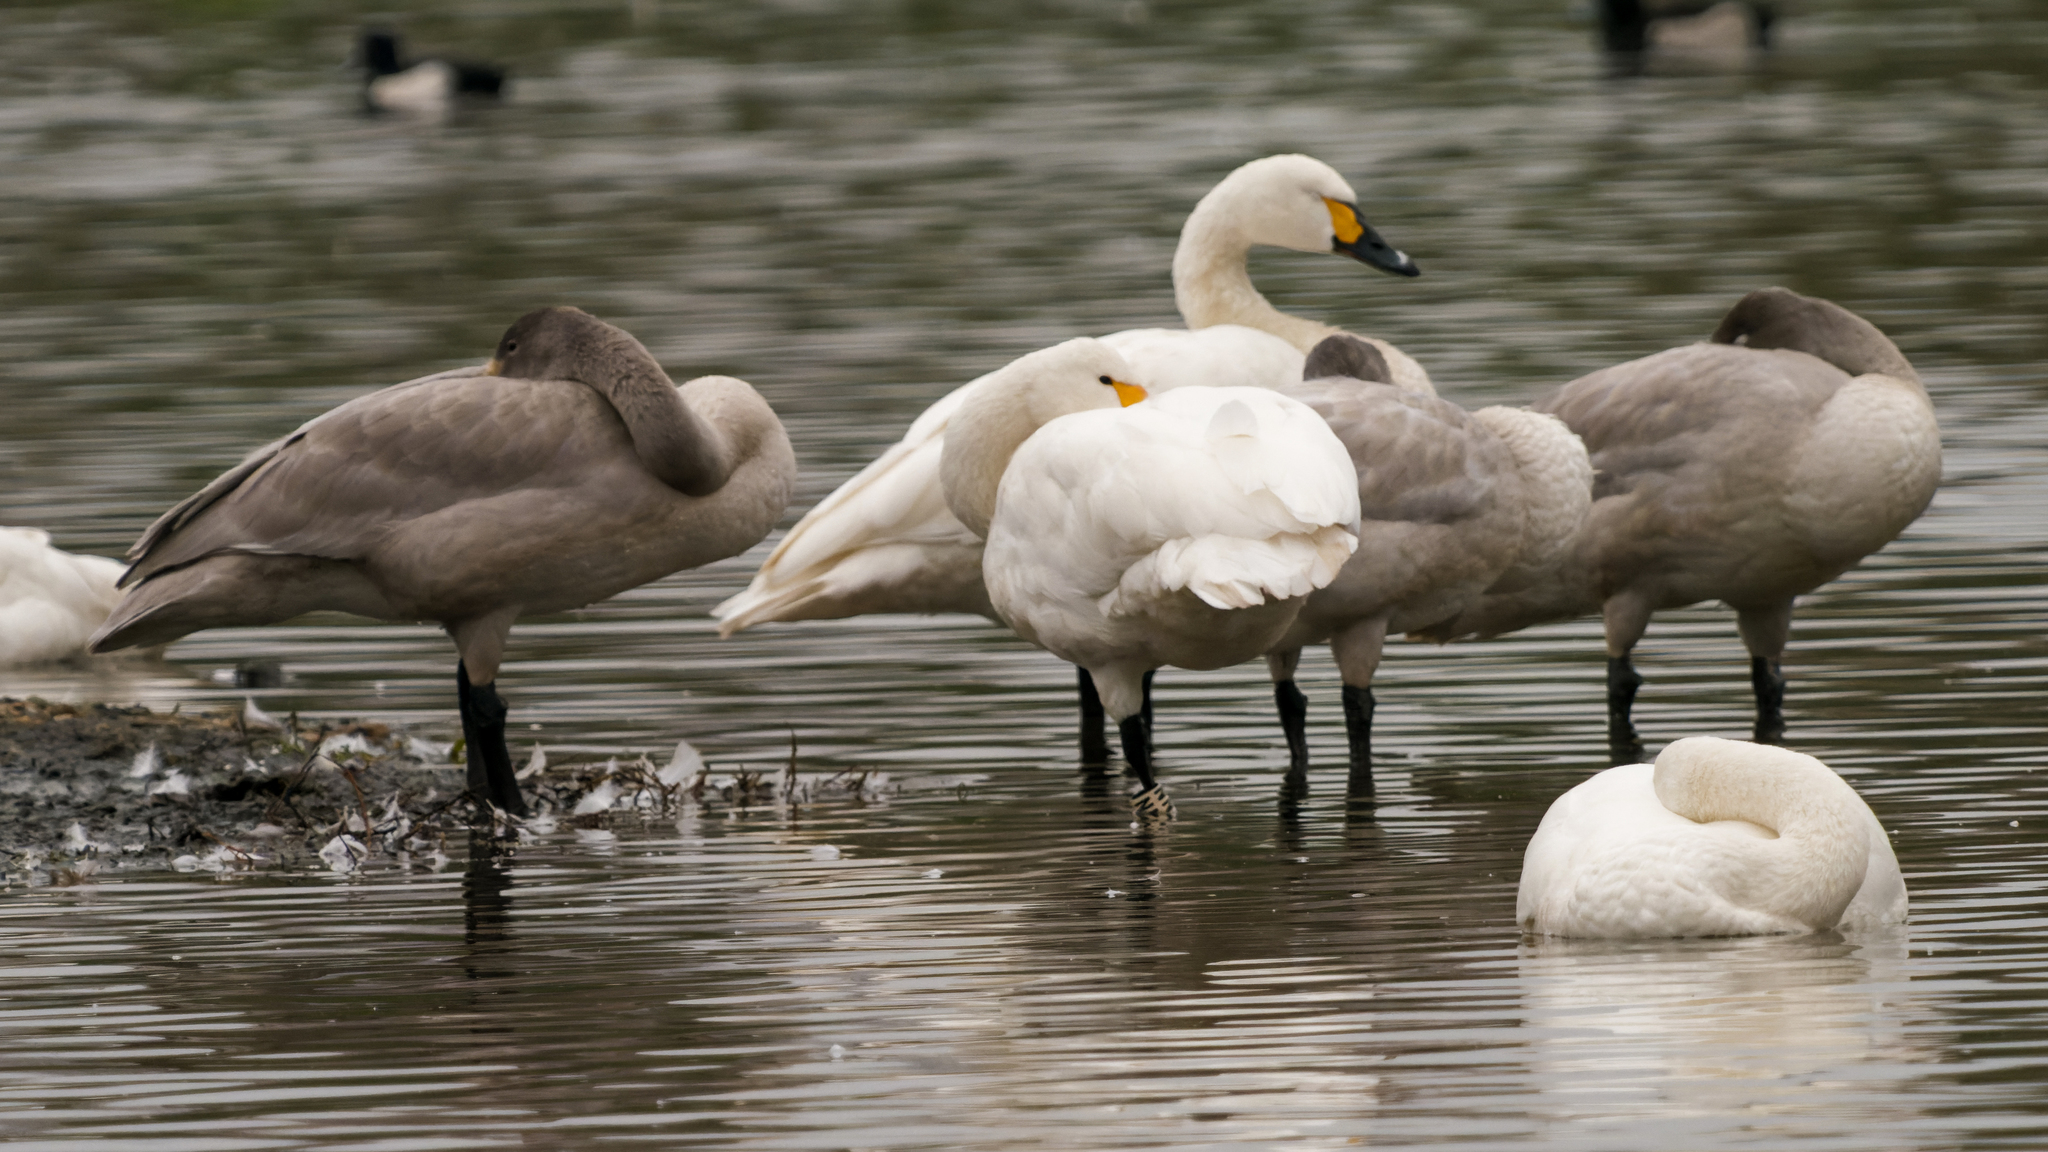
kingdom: Animalia
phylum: Chordata
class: Aves
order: Anseriformes
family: Anatidae
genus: Cygnus
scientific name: Cygnus columbianus
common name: Tundra swan
